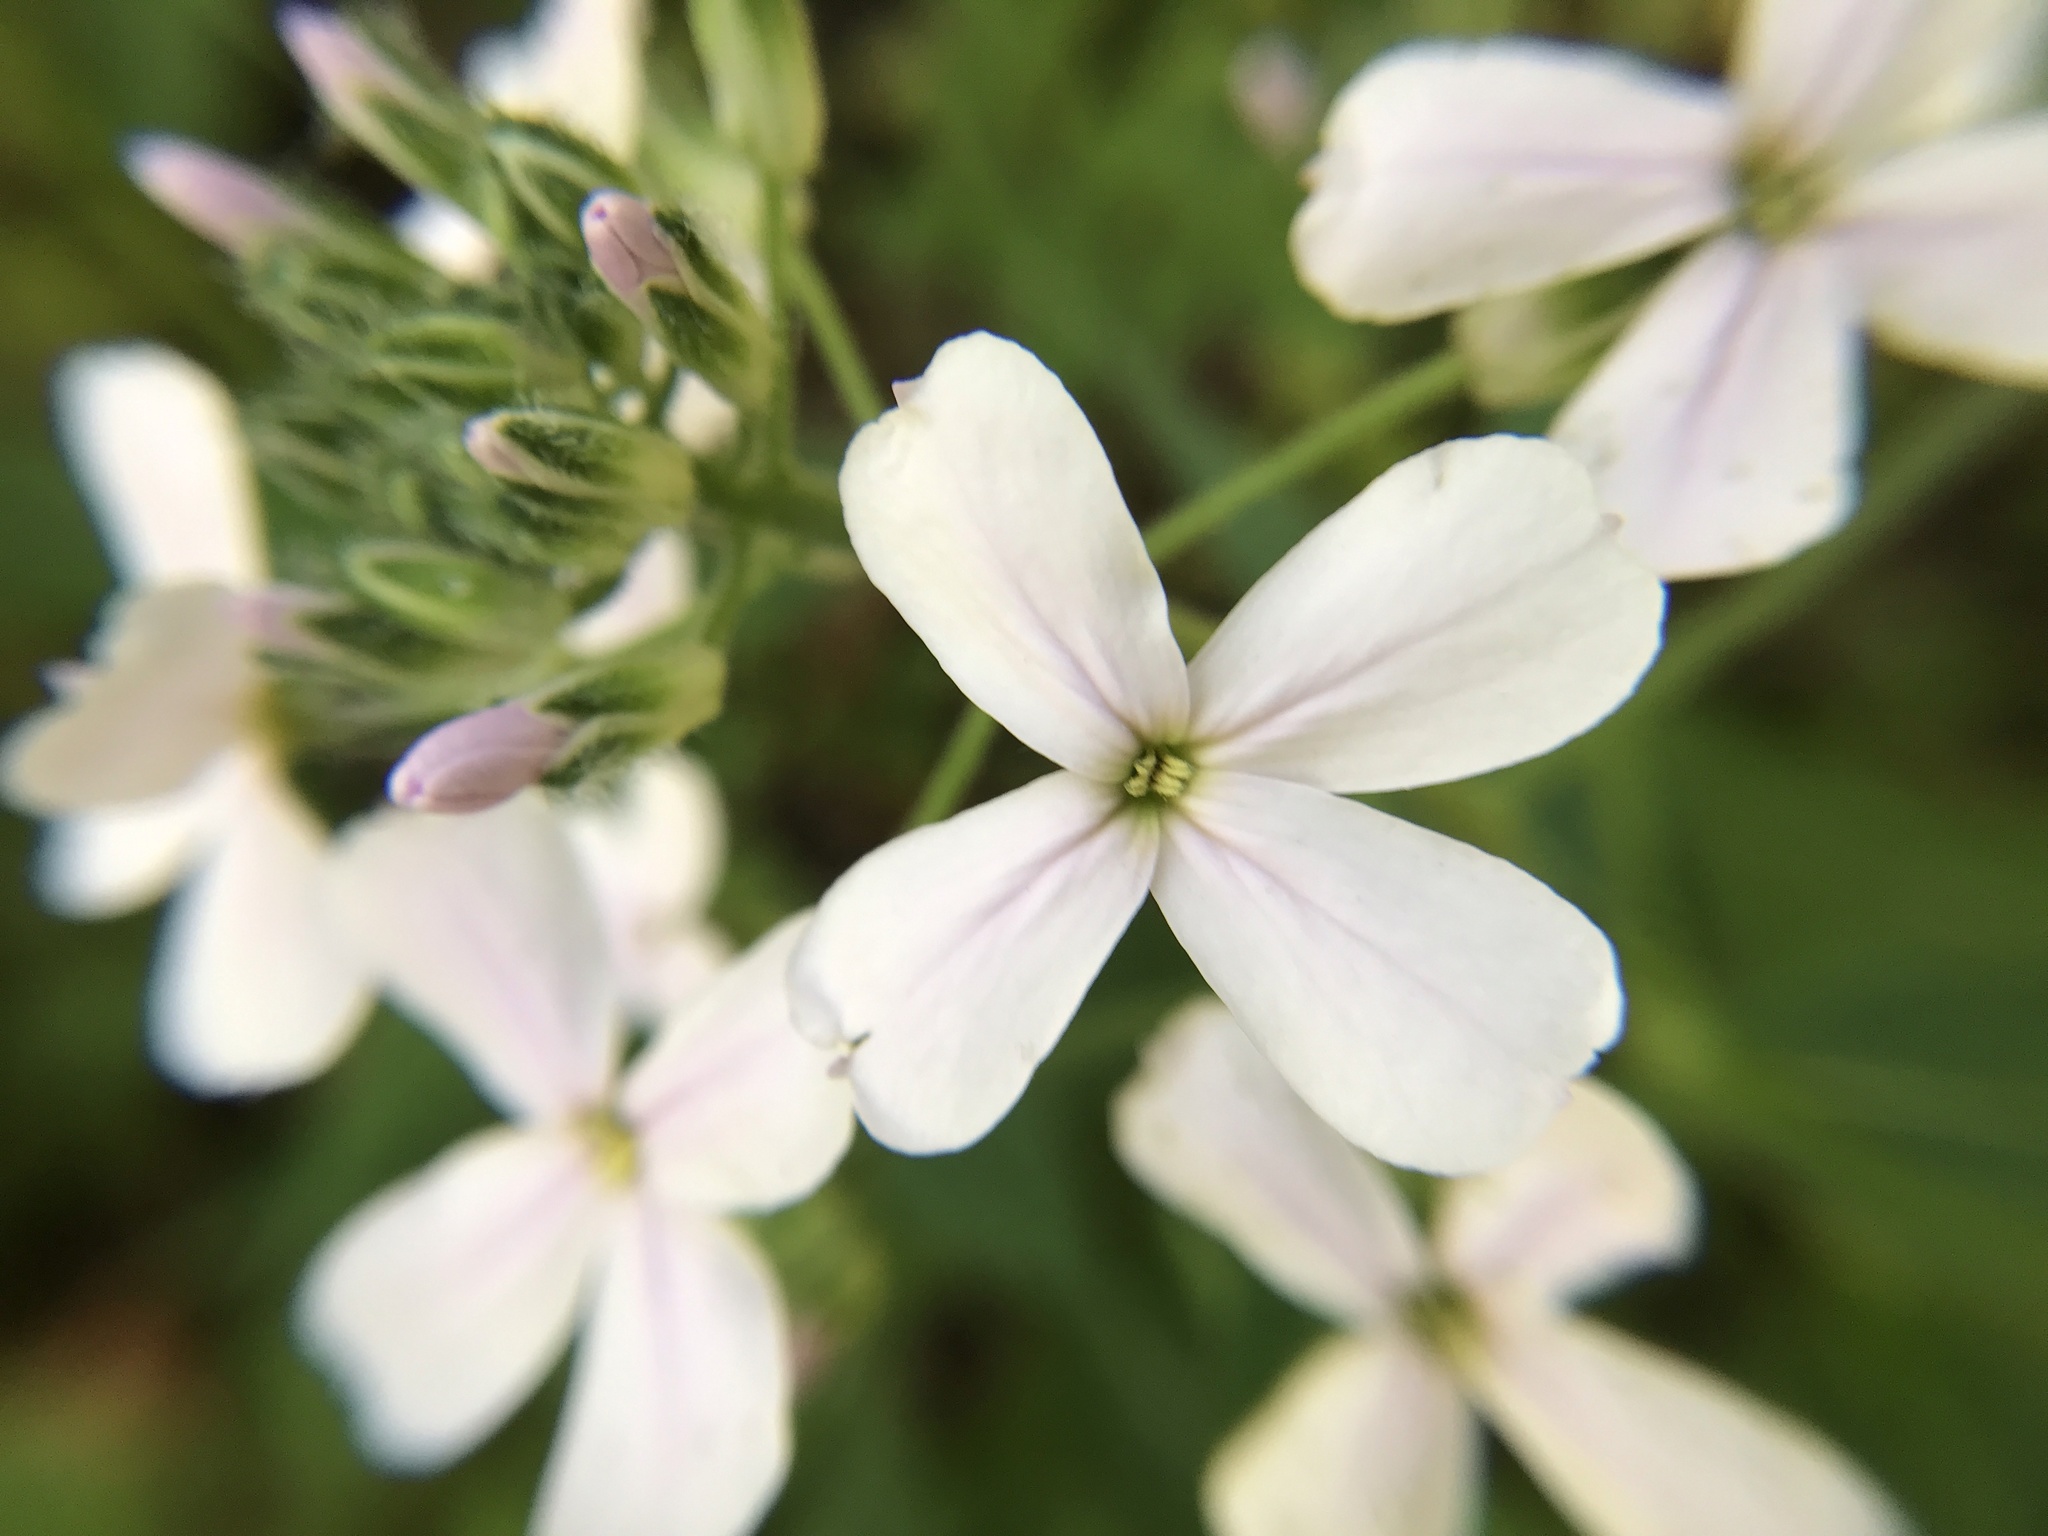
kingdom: Plantae
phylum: Tracheophyta
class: Magnoliopsida
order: Brassicales
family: Brassicaceae
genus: Hesperis
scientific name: Hesperis matronalis
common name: Dame's-violet
